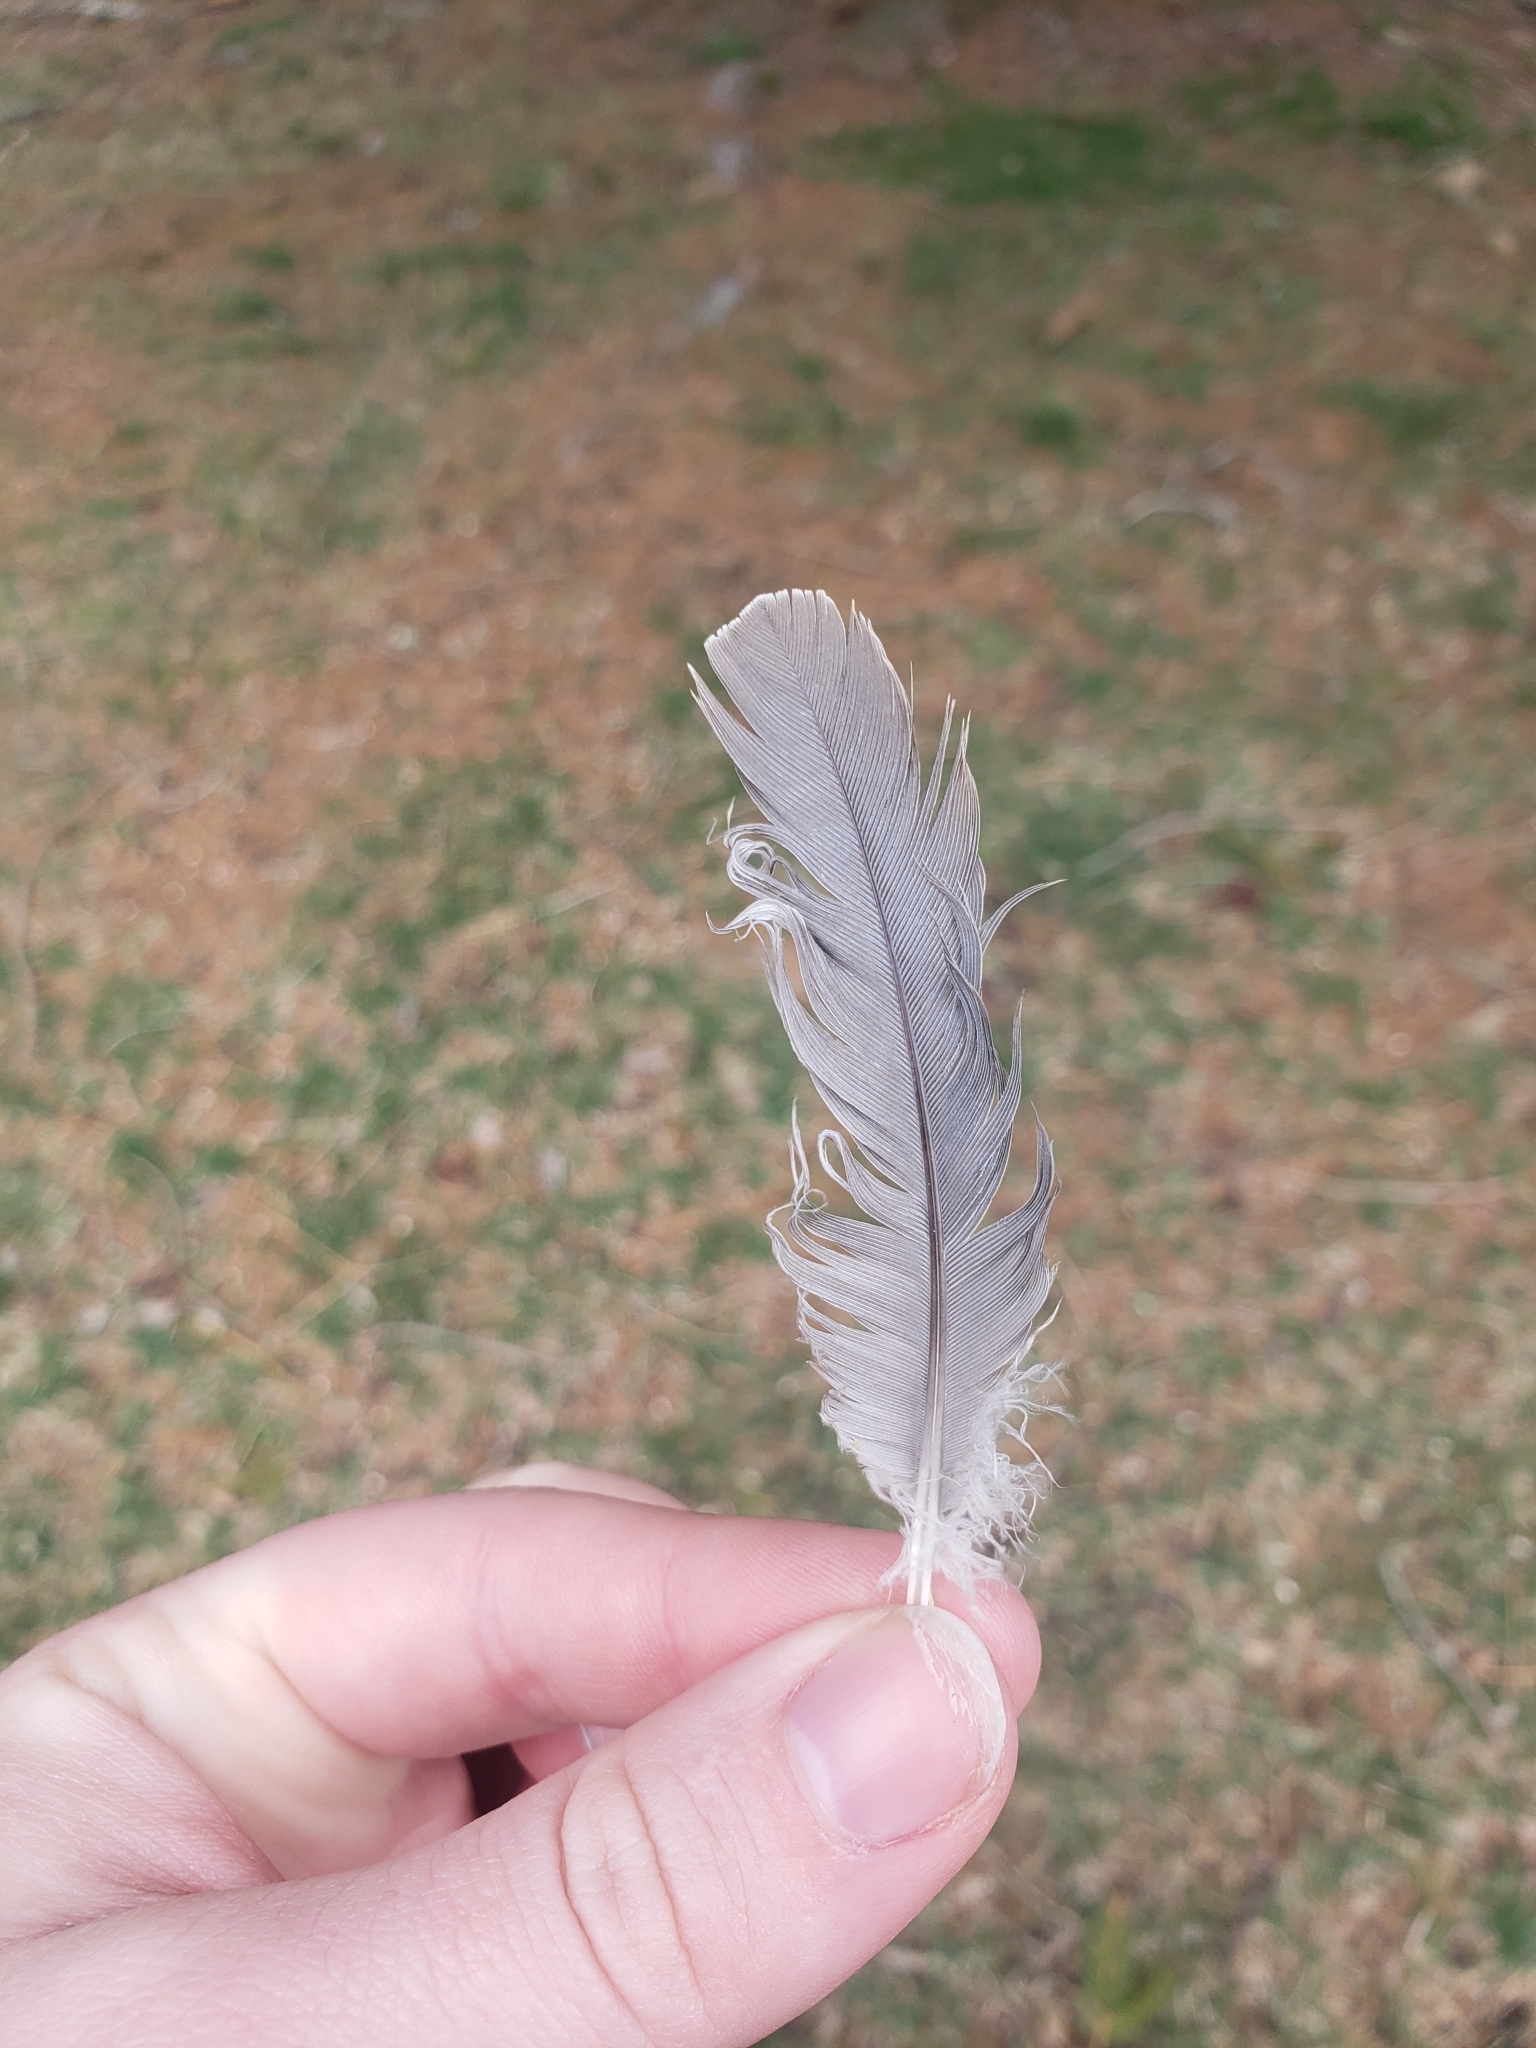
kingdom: Animalia
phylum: Chordata
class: Aves
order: Columbiformes
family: Columbidae
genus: Zenaida
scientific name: Zenaida macroura
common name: Mourning dove
